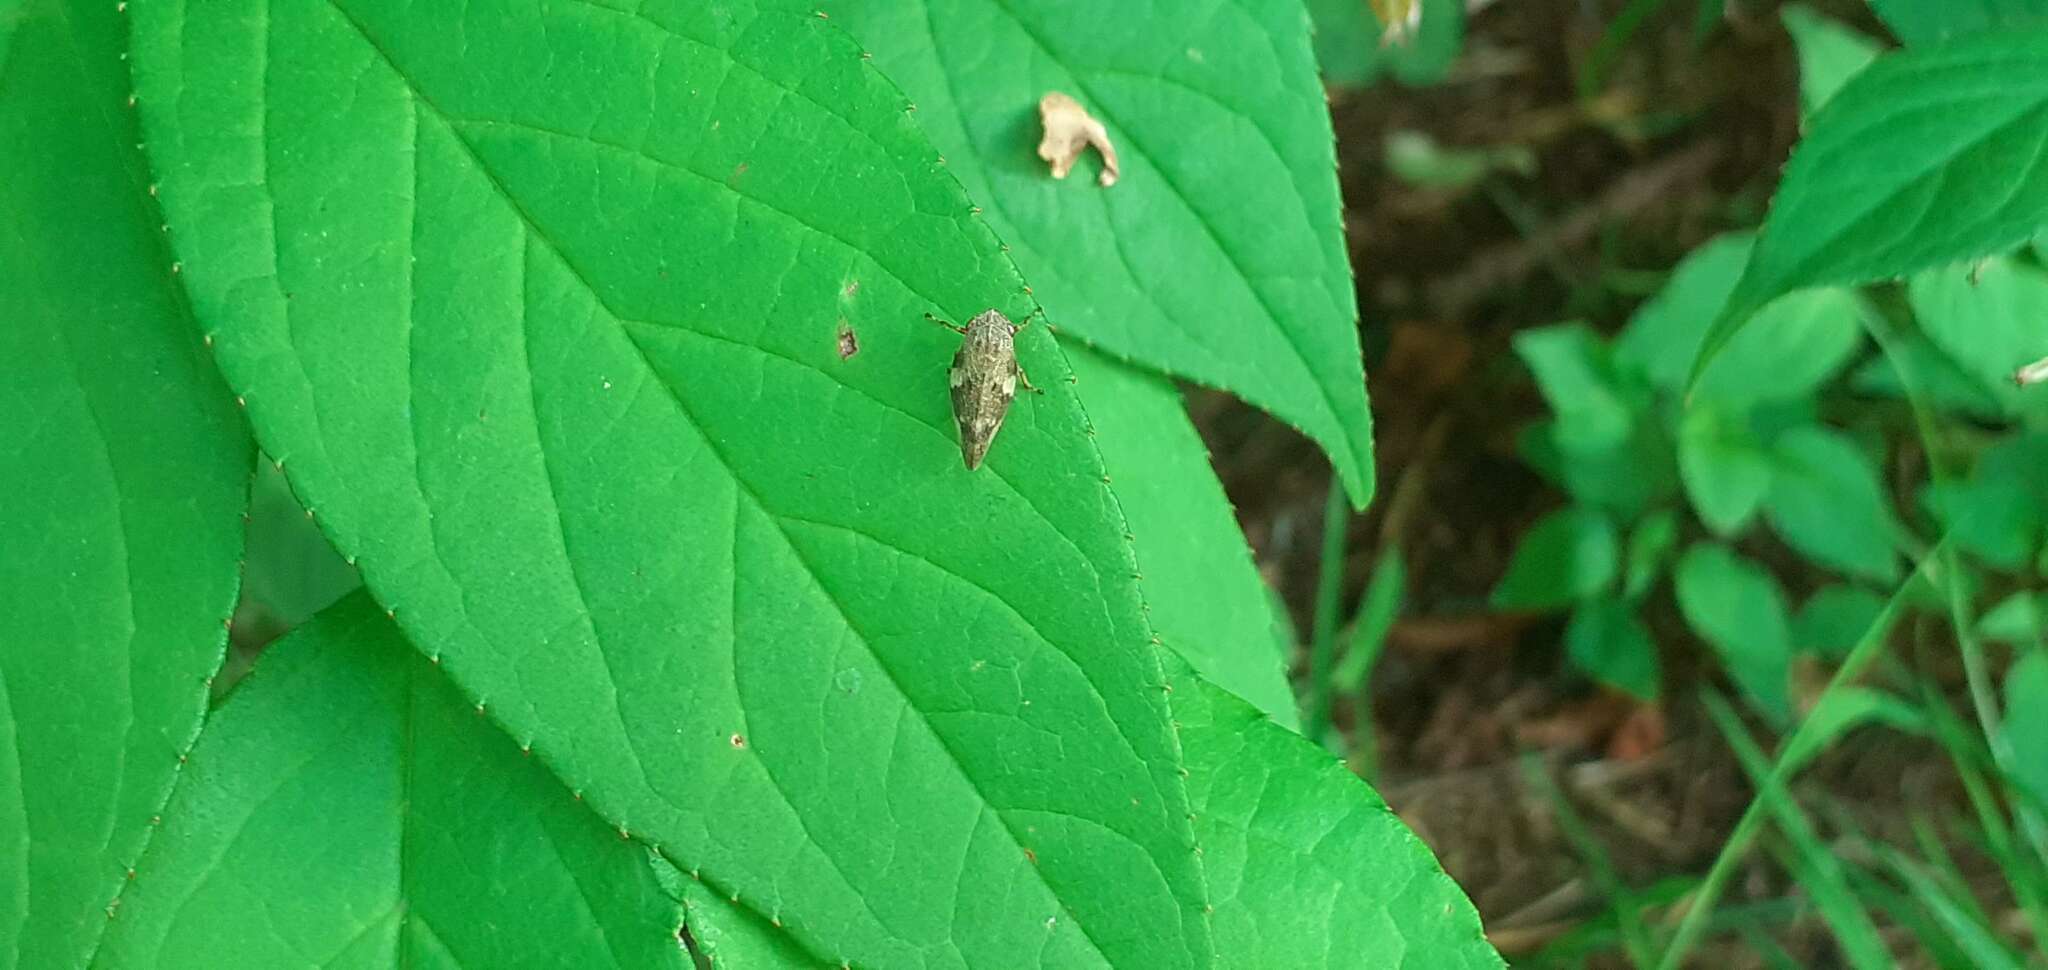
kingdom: Animalia
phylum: Arthropoda
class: Insecta
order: Hemiptera
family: Aphrophoridae
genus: Aphrophora
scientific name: Aphrophora alni
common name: European alder spittlebug
